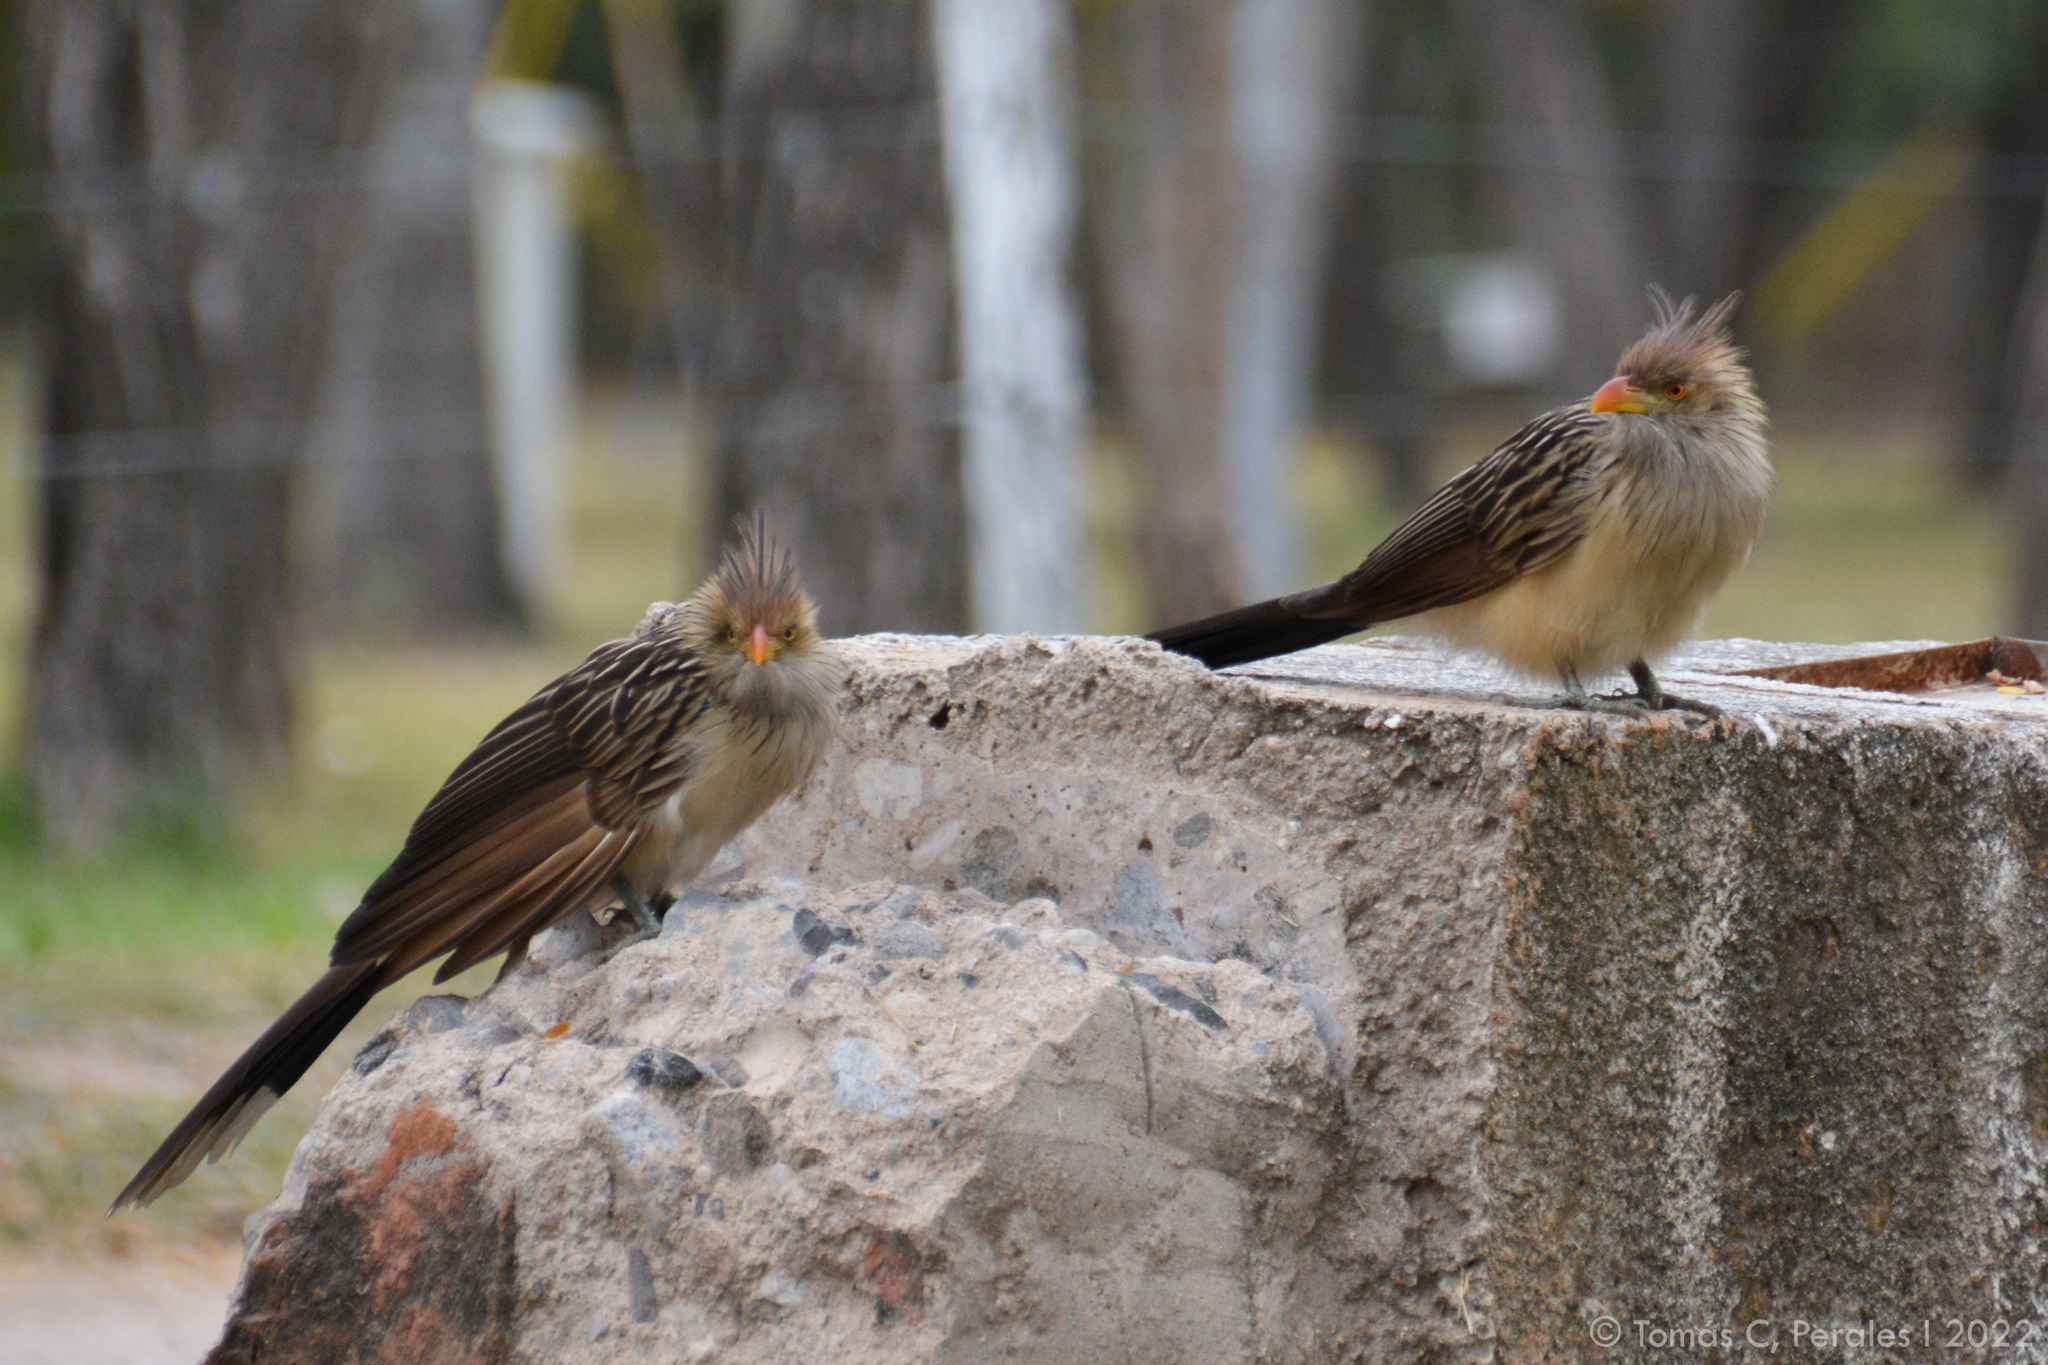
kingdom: Animalia
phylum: Chordata
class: Aves
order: Cuculiformes
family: Cuculidae
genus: Guira
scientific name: Guira guira
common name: Guira cuckoo
